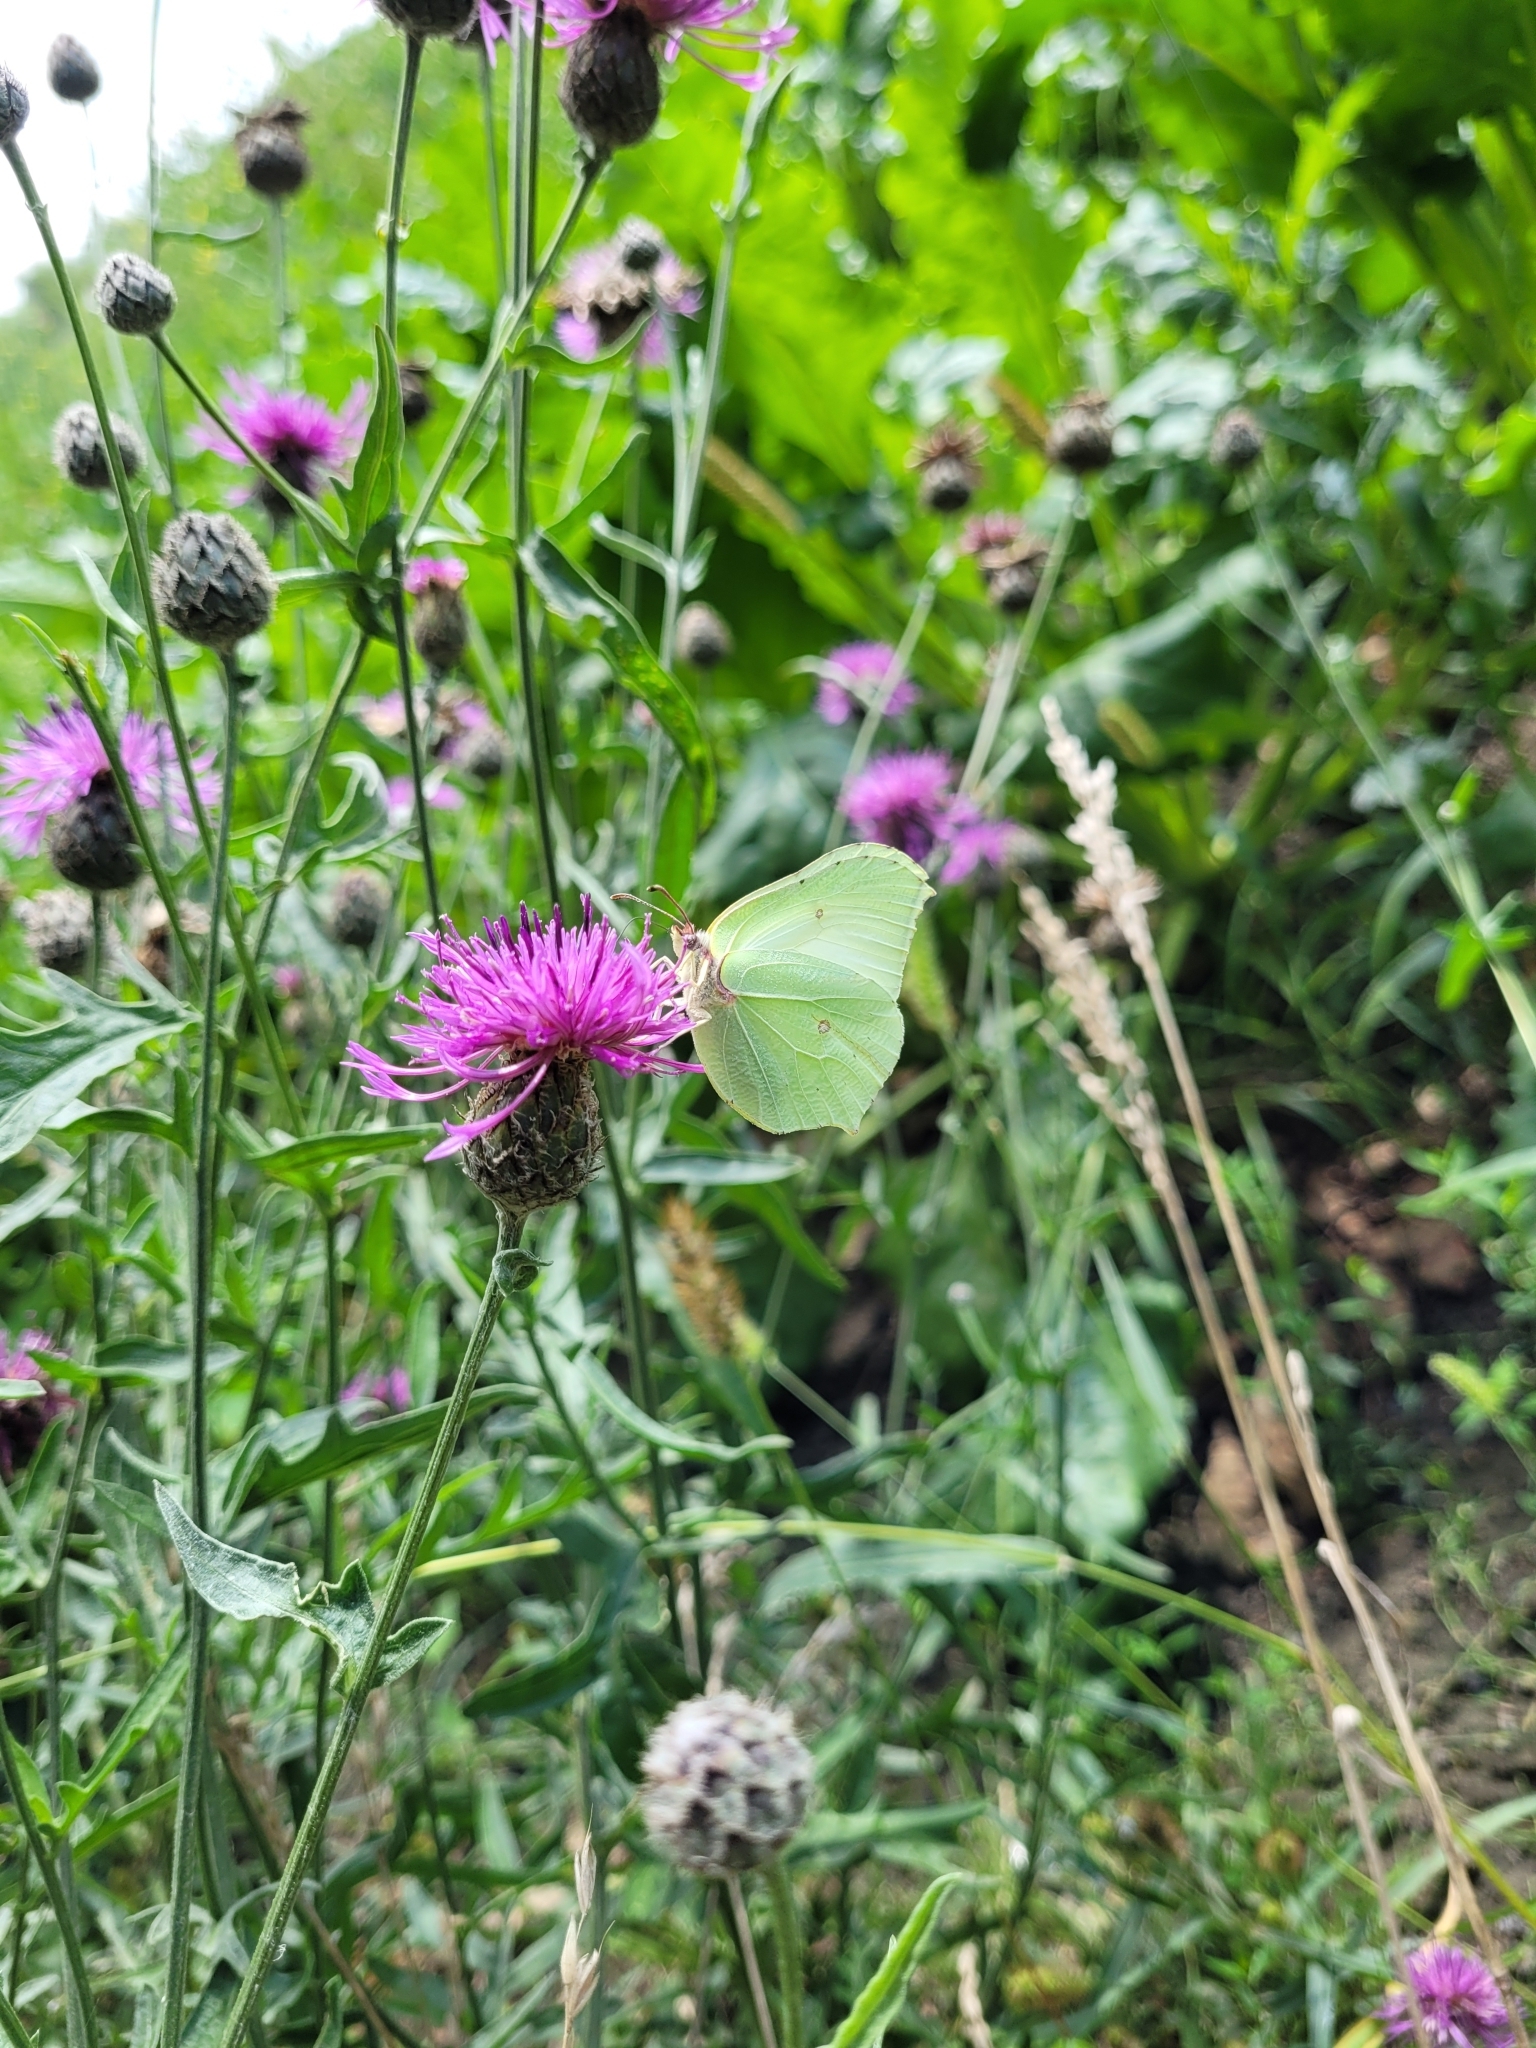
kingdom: Animalia
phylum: Arthropoda
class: Insecta
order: Lepidoptera
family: Pieridae
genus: Gonepteryx
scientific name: Gonepteryx rhamni
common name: Brimstone
